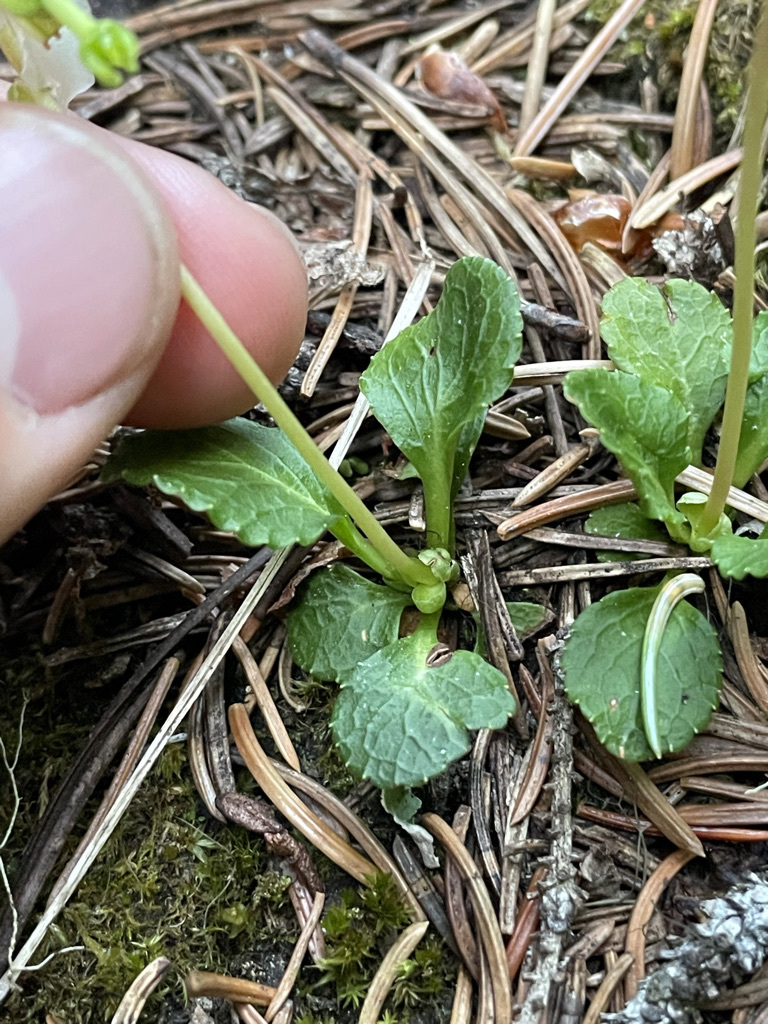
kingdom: Plantae
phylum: Tracheophyta
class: Magnoliopsida
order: Ericales
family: Ericaceae
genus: Moneses
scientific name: Moneses uniflora
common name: One-flowered wintergreen
